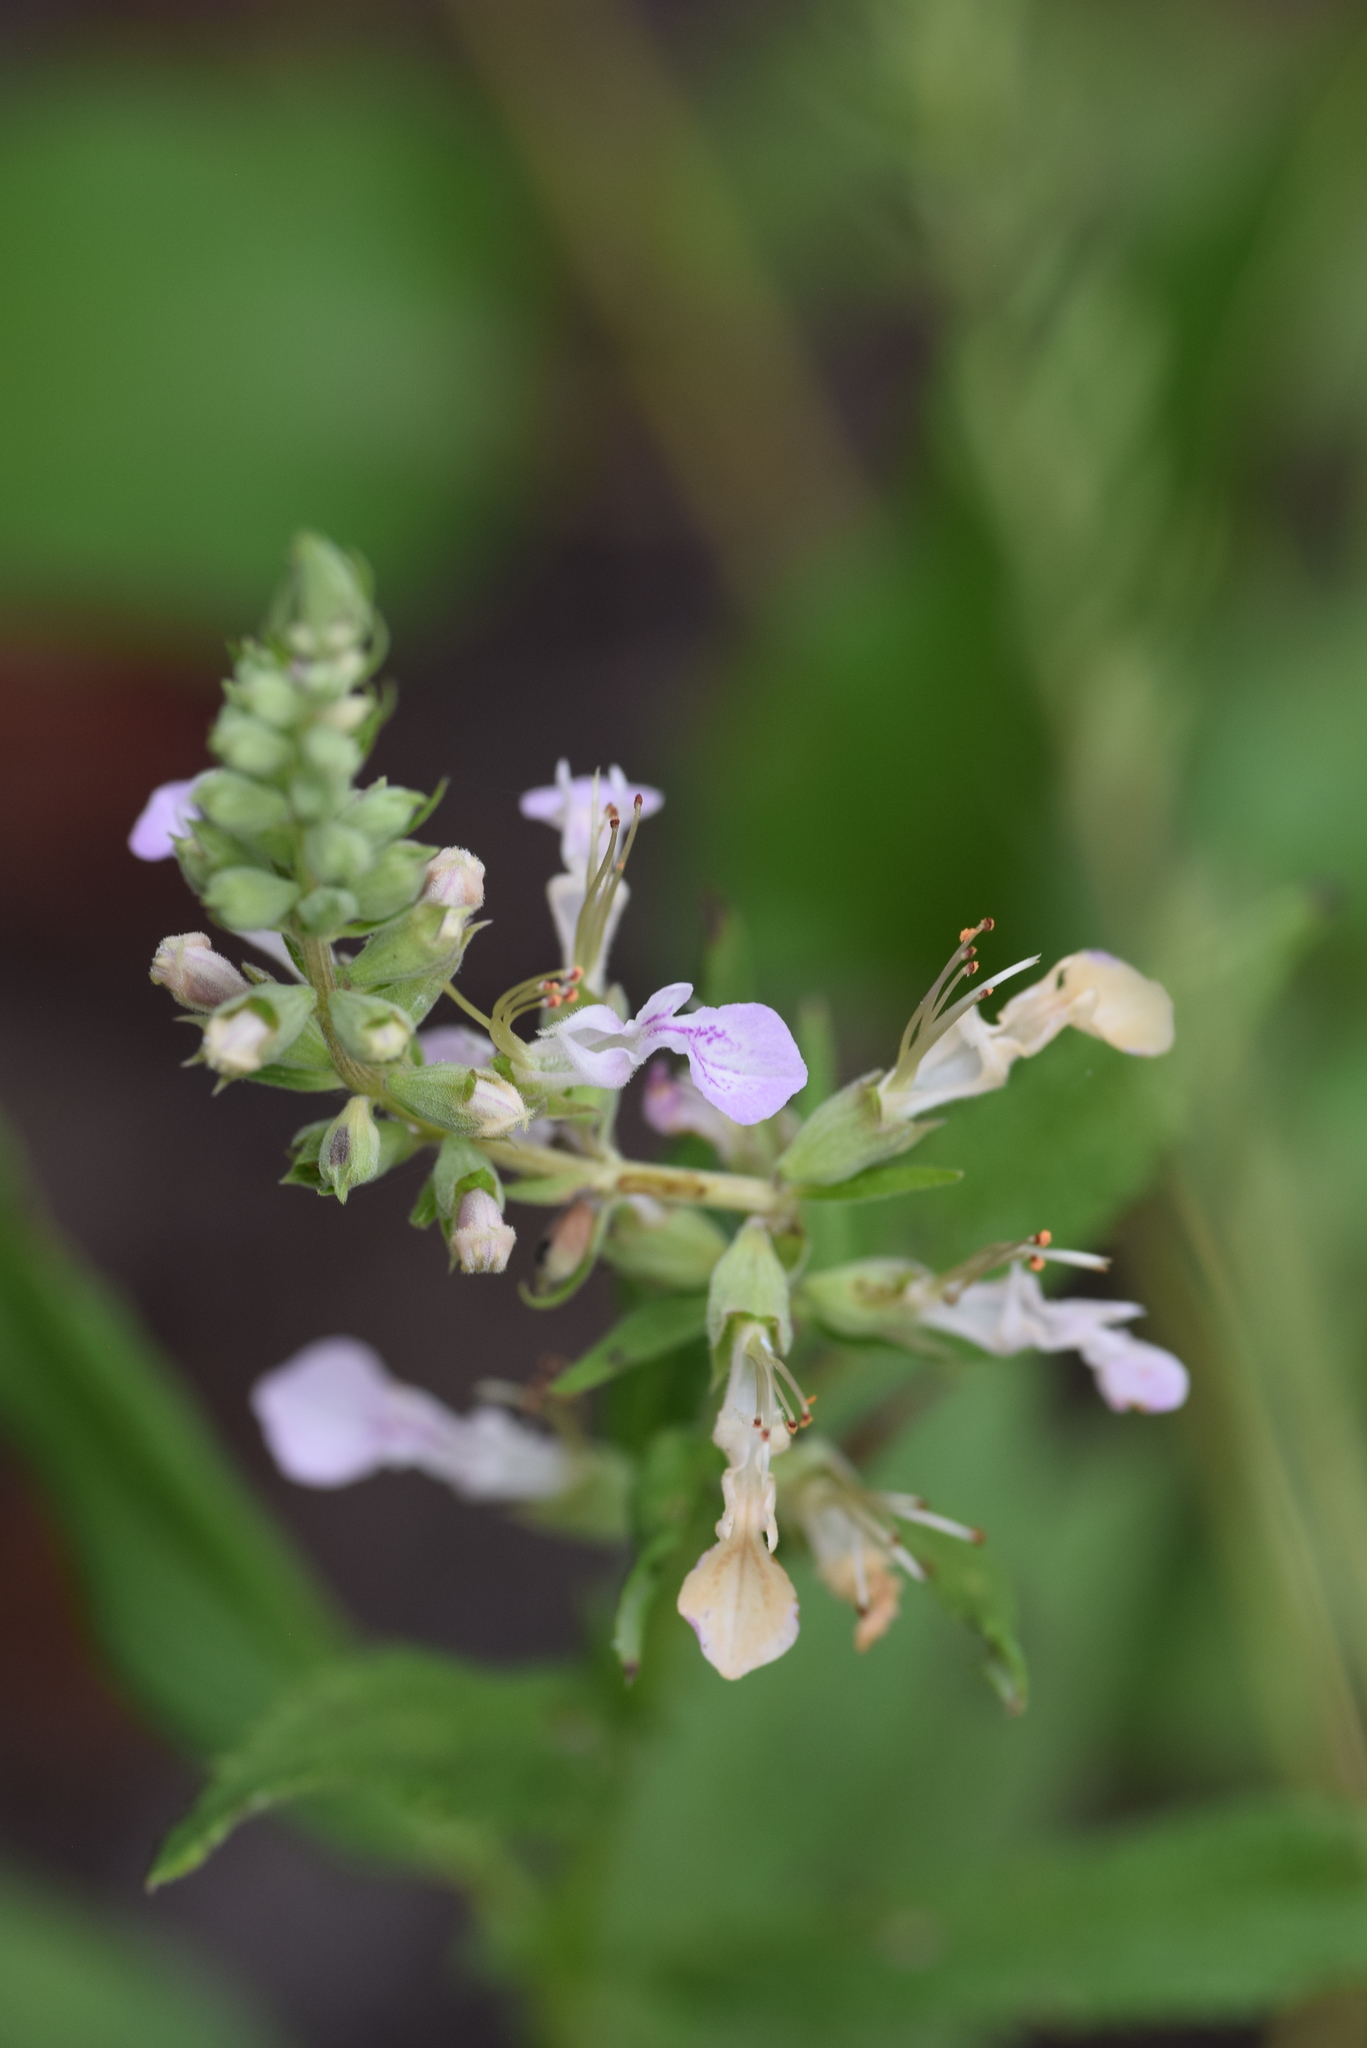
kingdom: Plantae
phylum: Tracheophyta
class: Magnoliopsida
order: Lamiales
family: Lamiaceae
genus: Teucrium
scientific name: Teucrium canadense
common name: American germander
